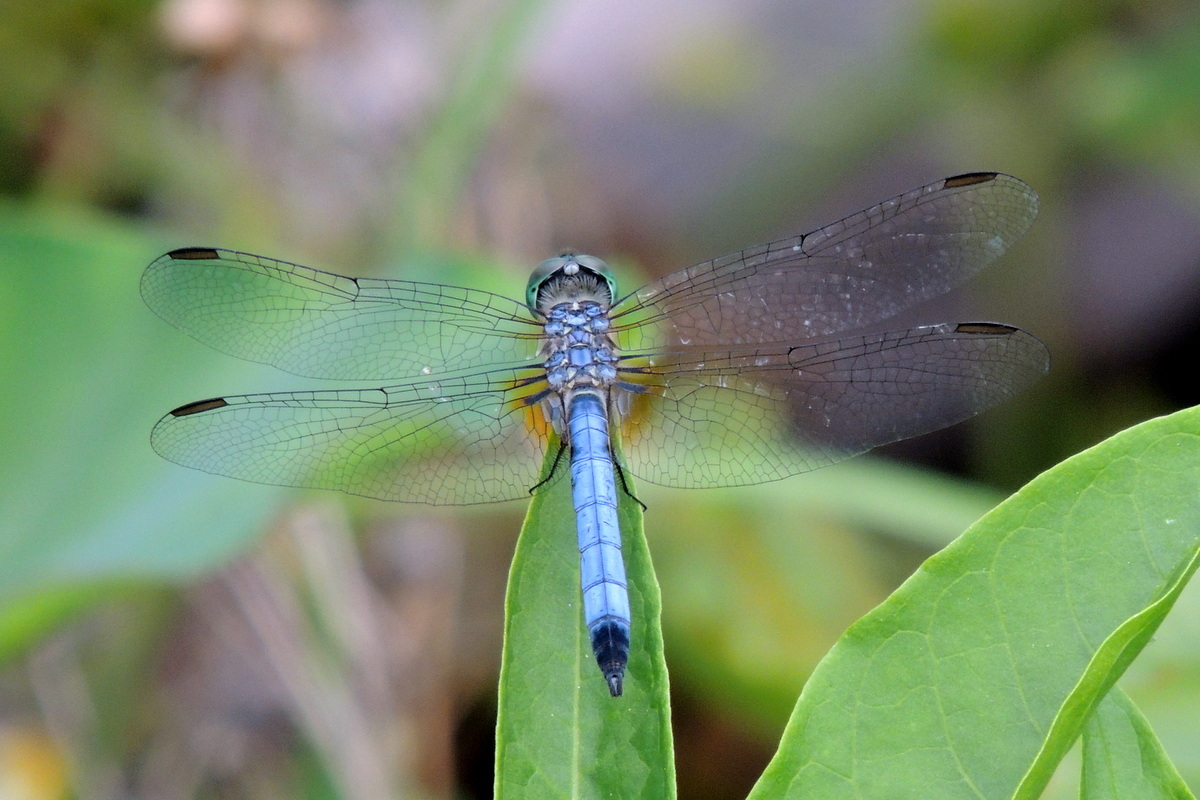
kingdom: Animalia
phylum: Arthropoda
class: Insecta
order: Odonata
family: Libellulidae
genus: Pachydiplax
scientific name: Pachydiplax longipennis
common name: Blue dasher
